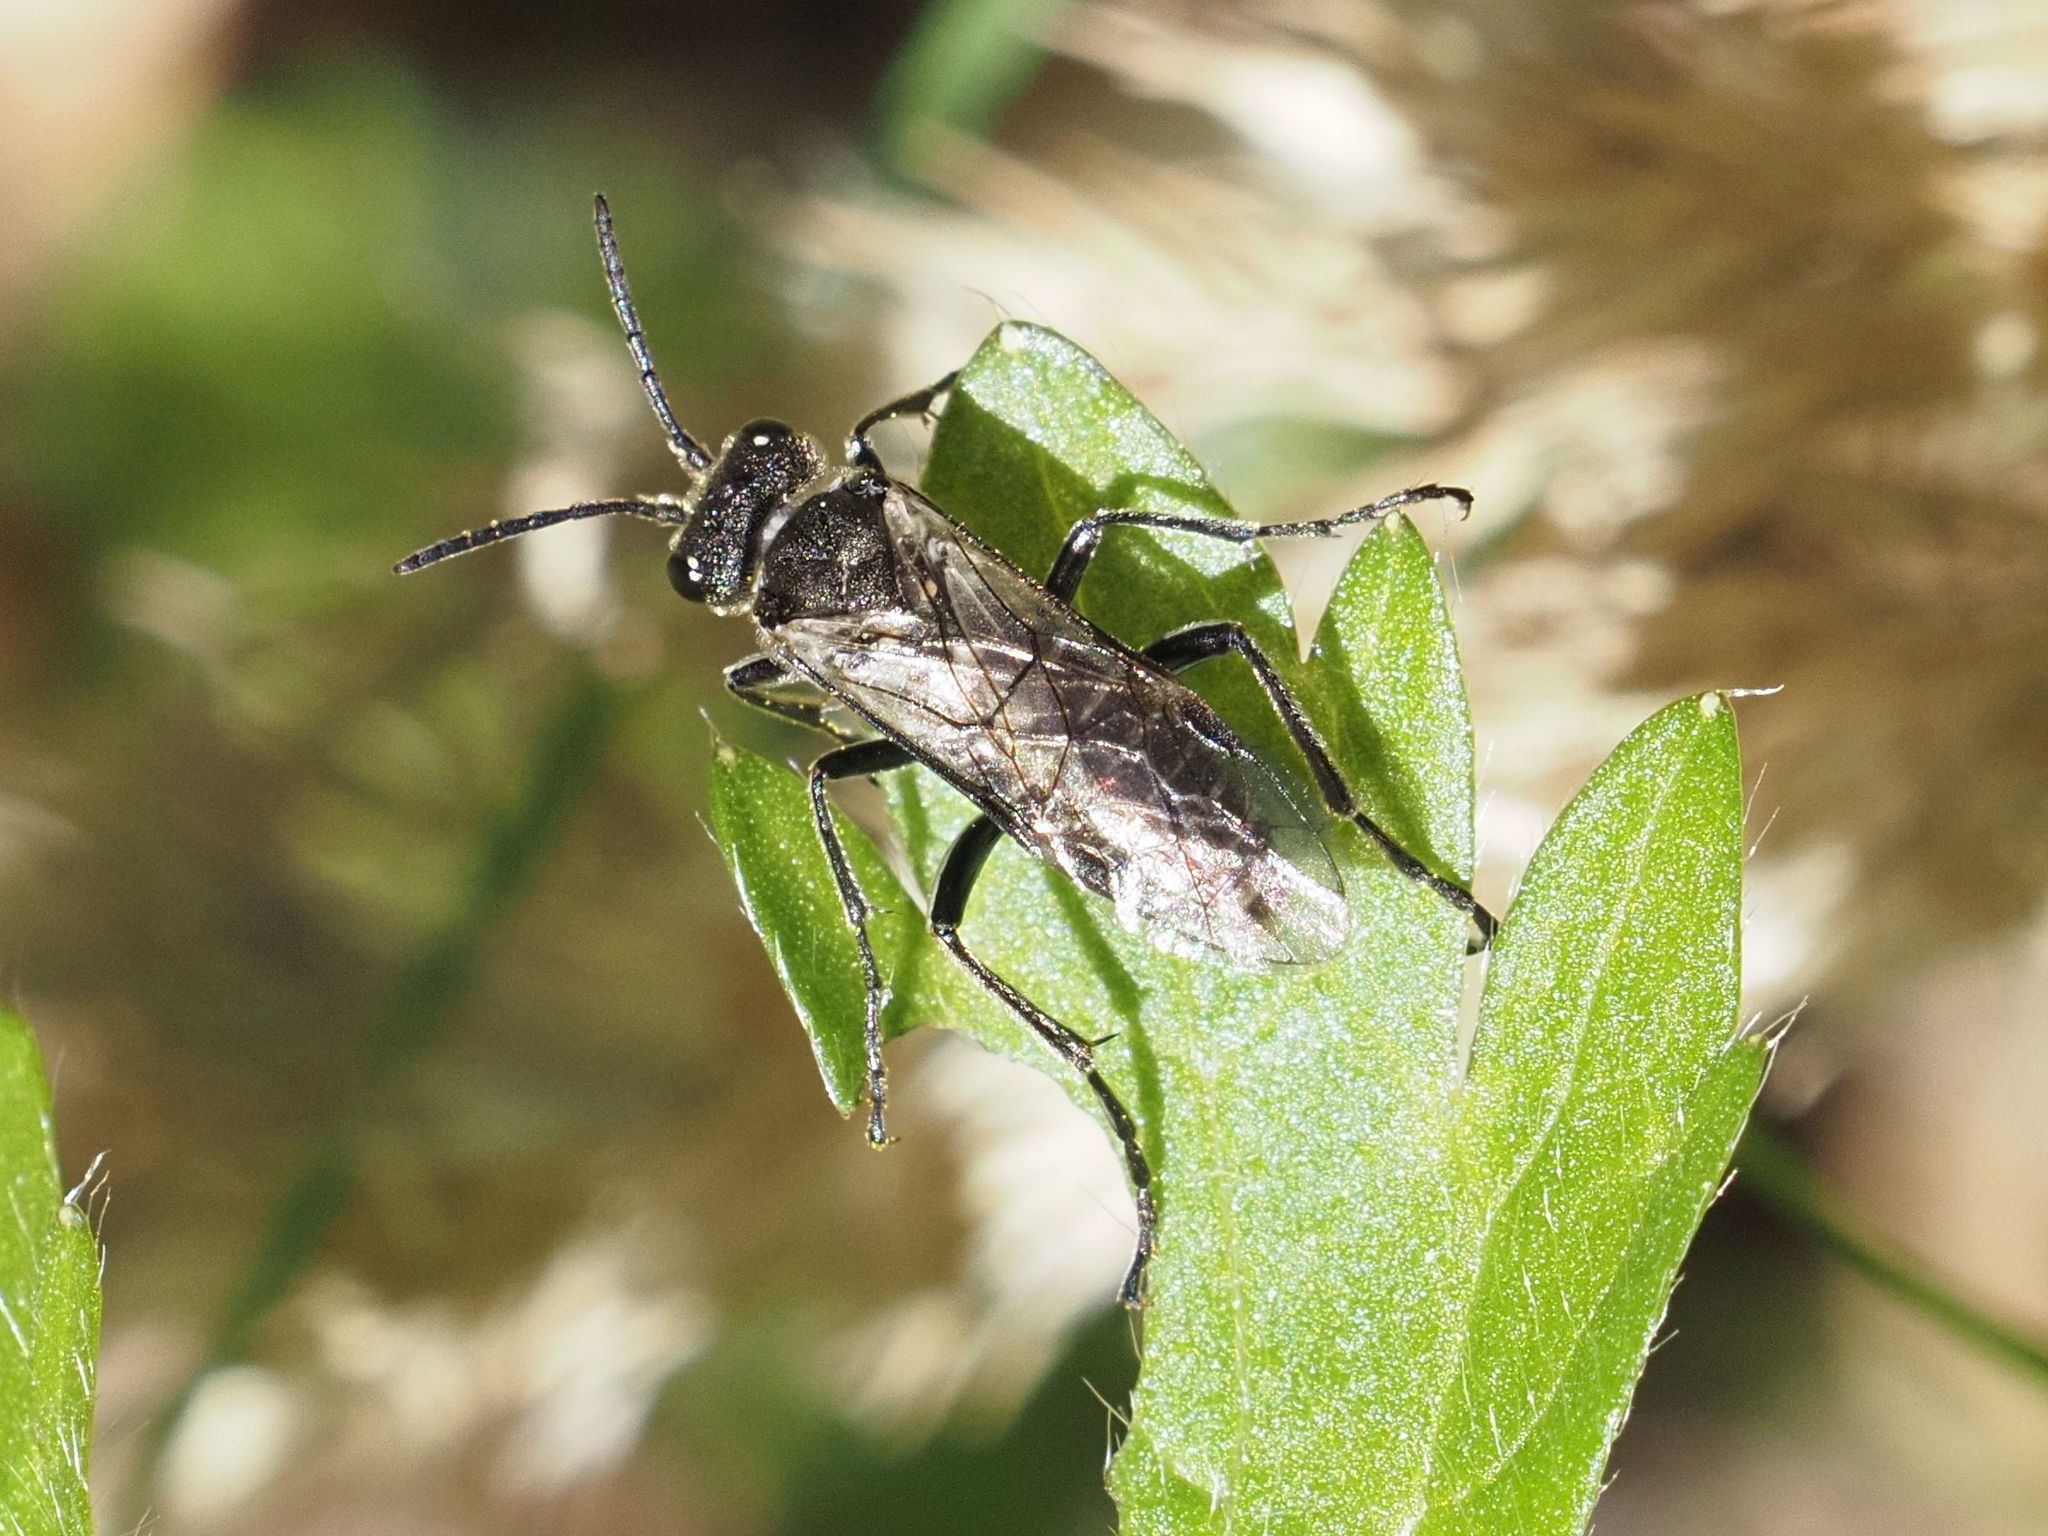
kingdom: Animalia
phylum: Arthropoda
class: Insecta
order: Hymenoptera
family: Tenthredinidae
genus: Sciapteryx
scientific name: Sciapteryx consobrina
